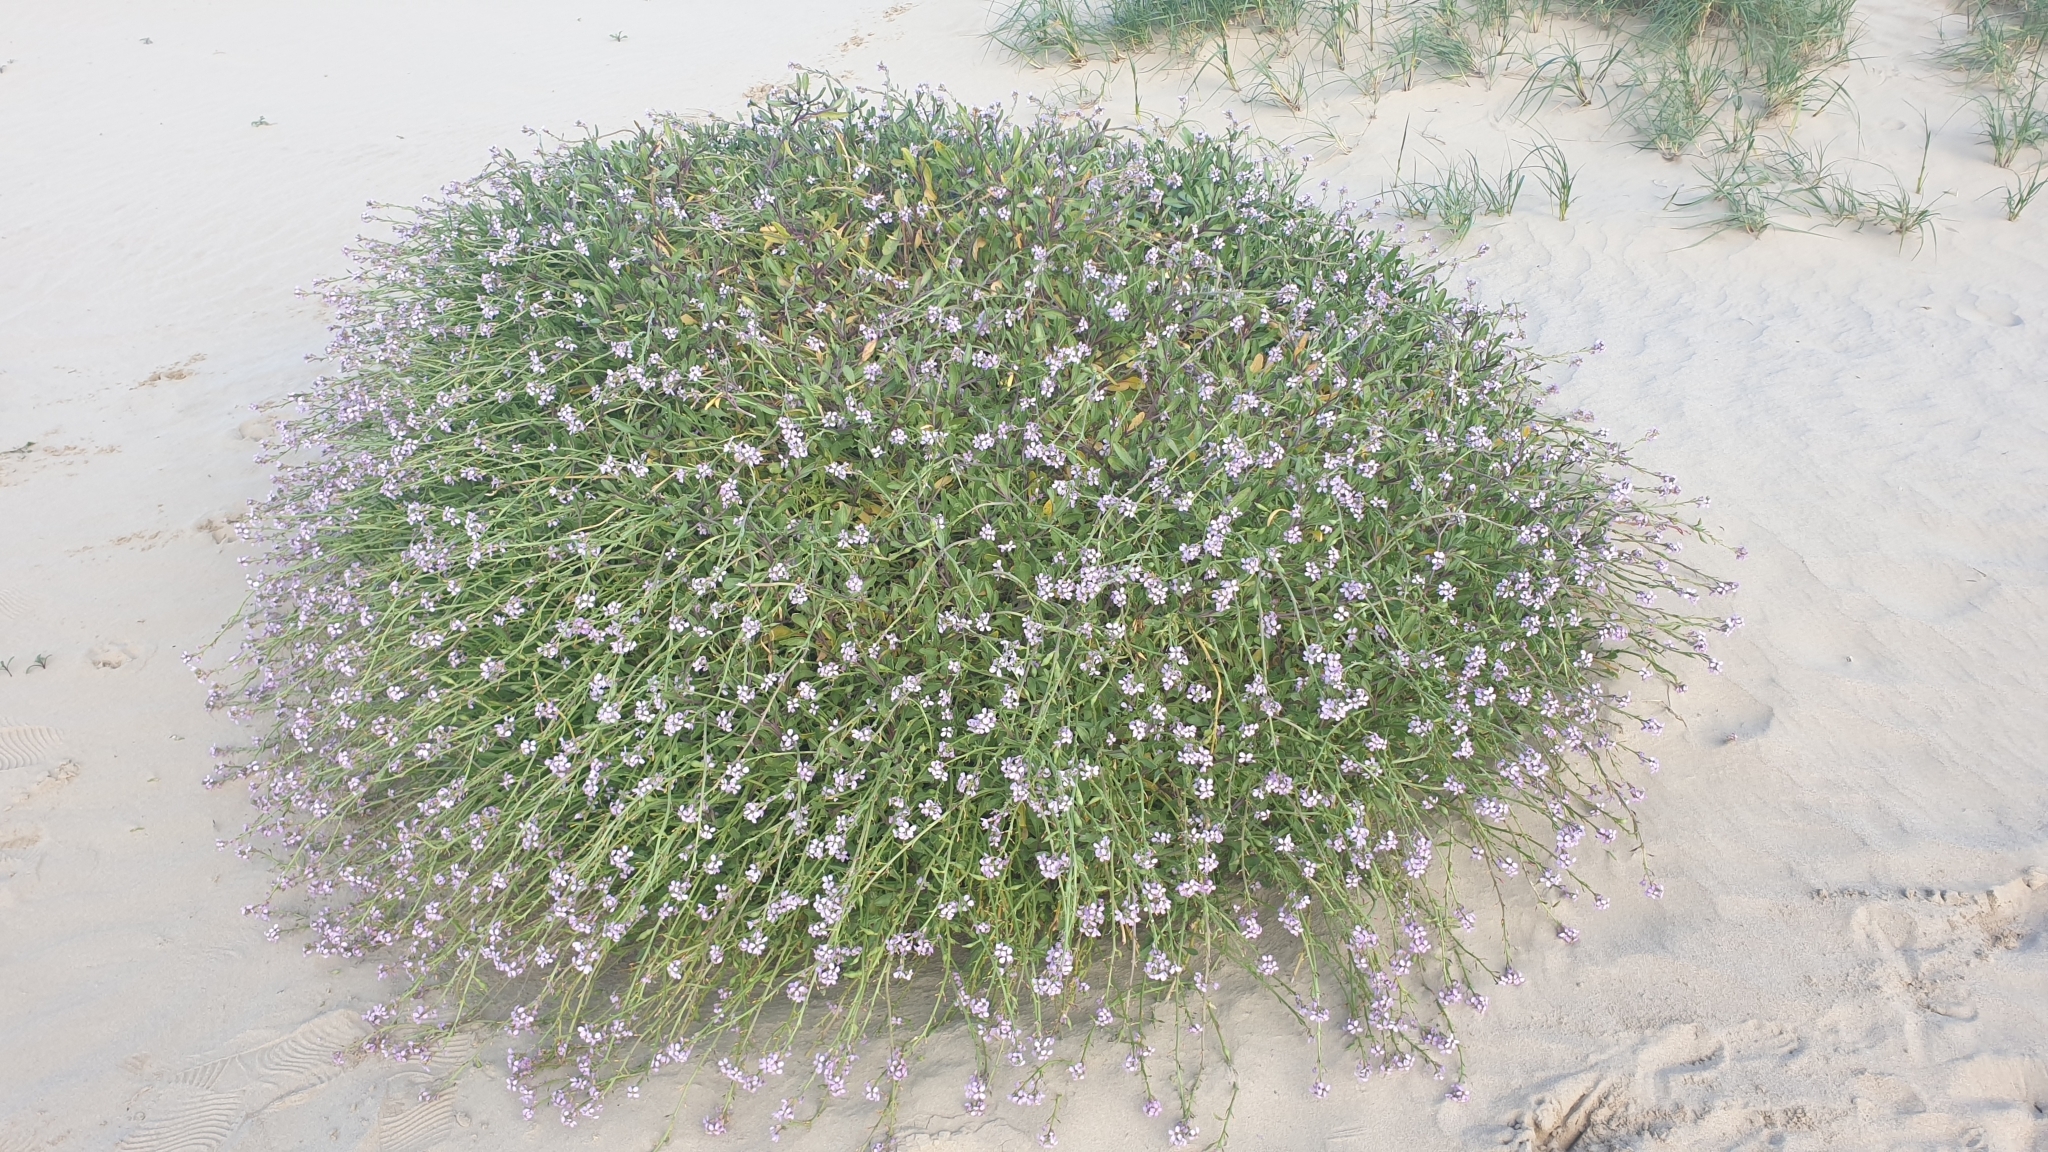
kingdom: Plantae
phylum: Tracheophyta
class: Magnoliopsida
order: Brassicales
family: Brassicaceae
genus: Cakile
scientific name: Cakile maritima
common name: Sea rocket
